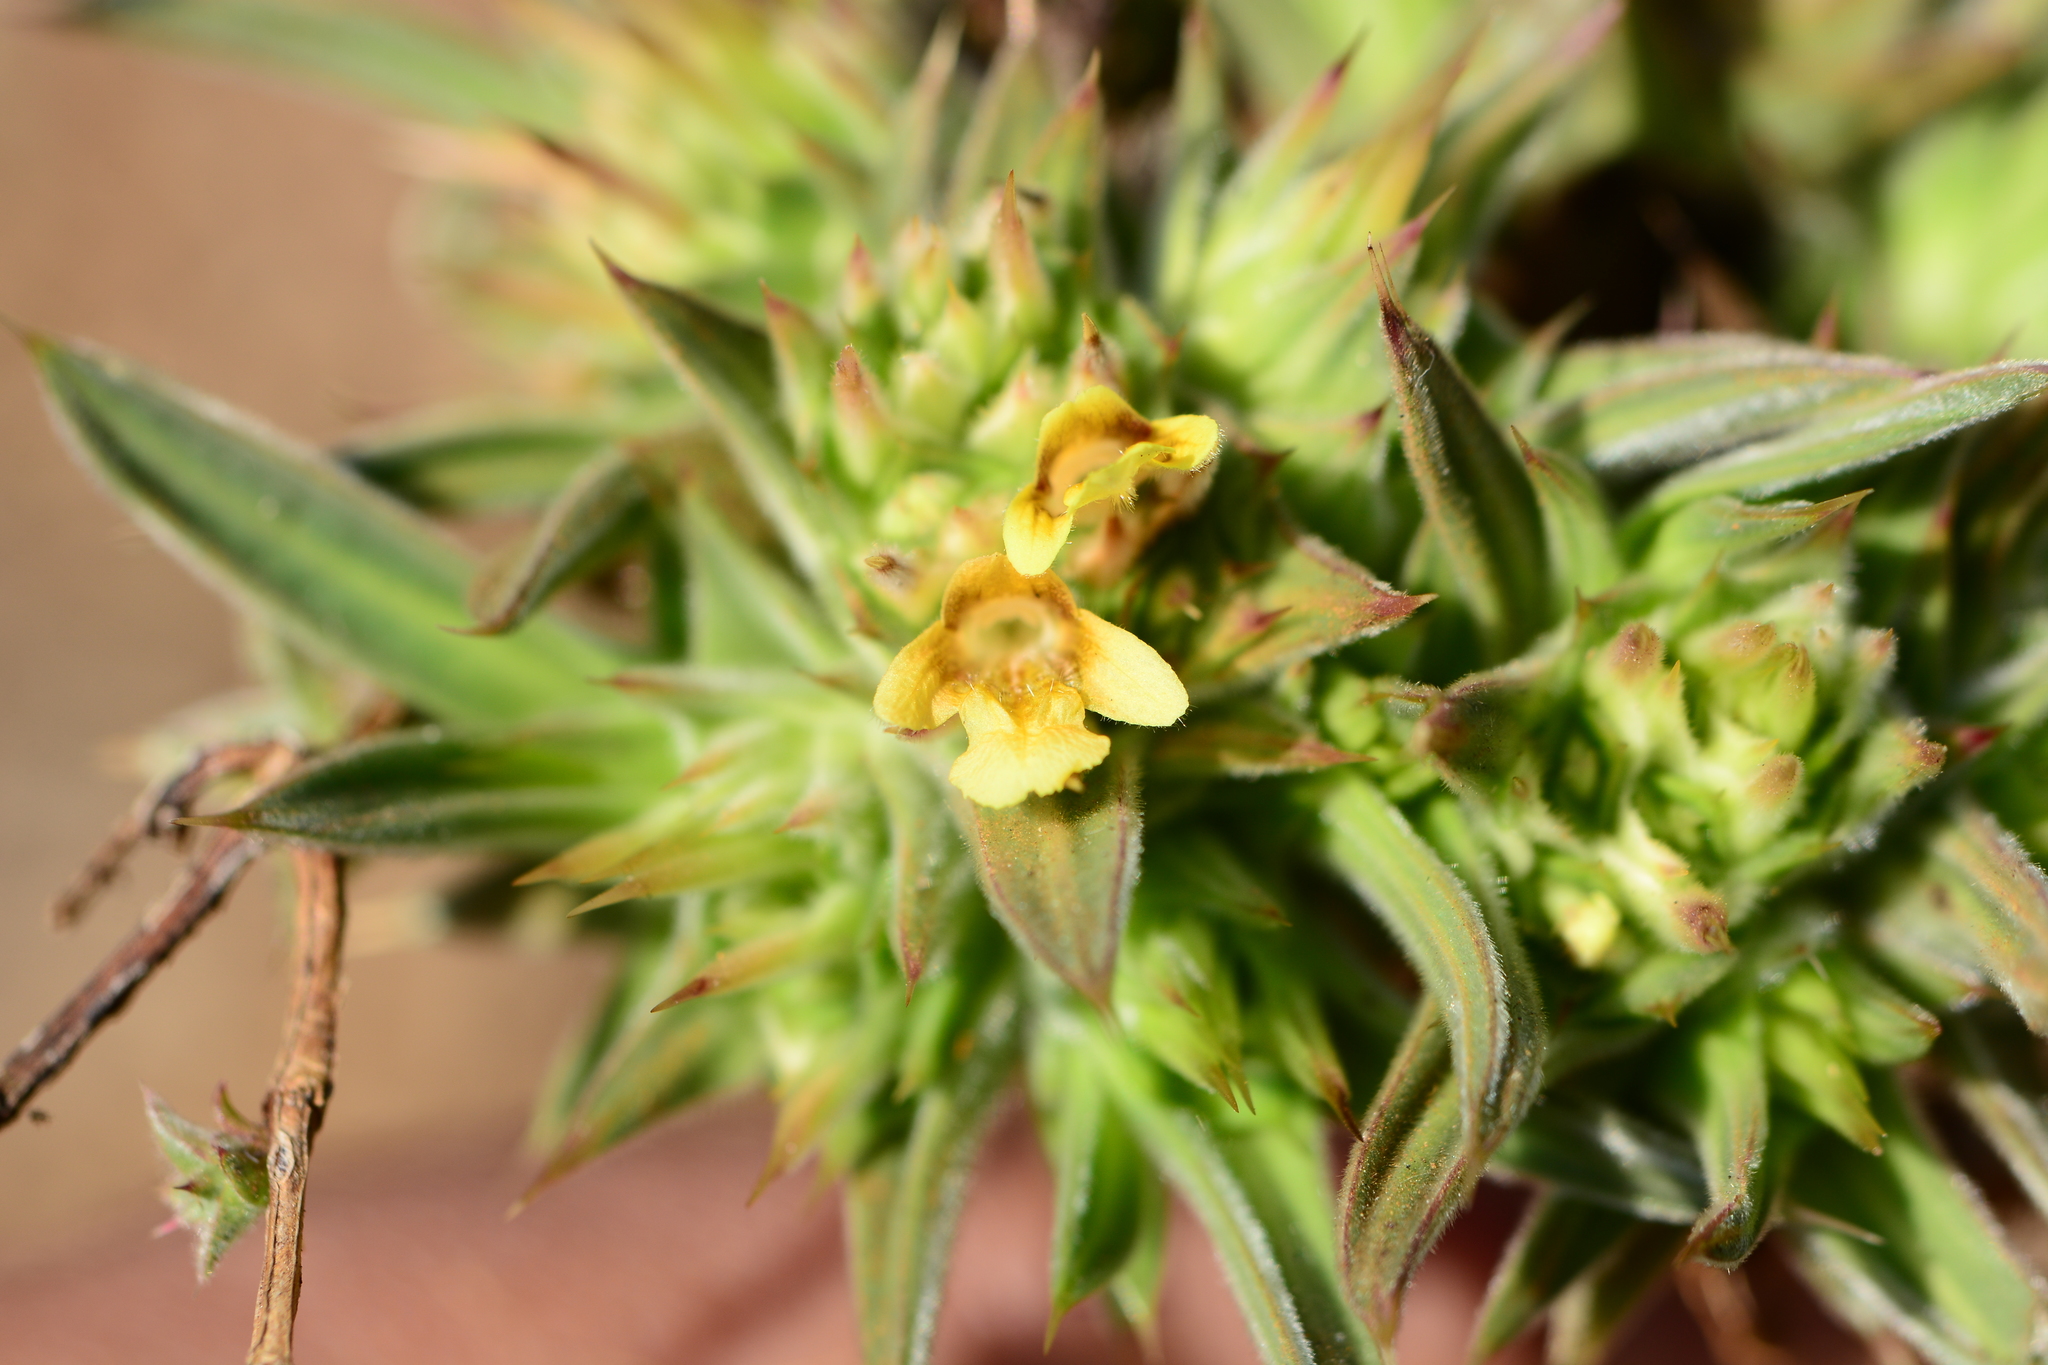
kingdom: Plantae
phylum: Tracheophyta
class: Magnoliopsida
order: Lamiales
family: Acanthaceae
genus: Lepidagathis
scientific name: Lepidagathis lutea
